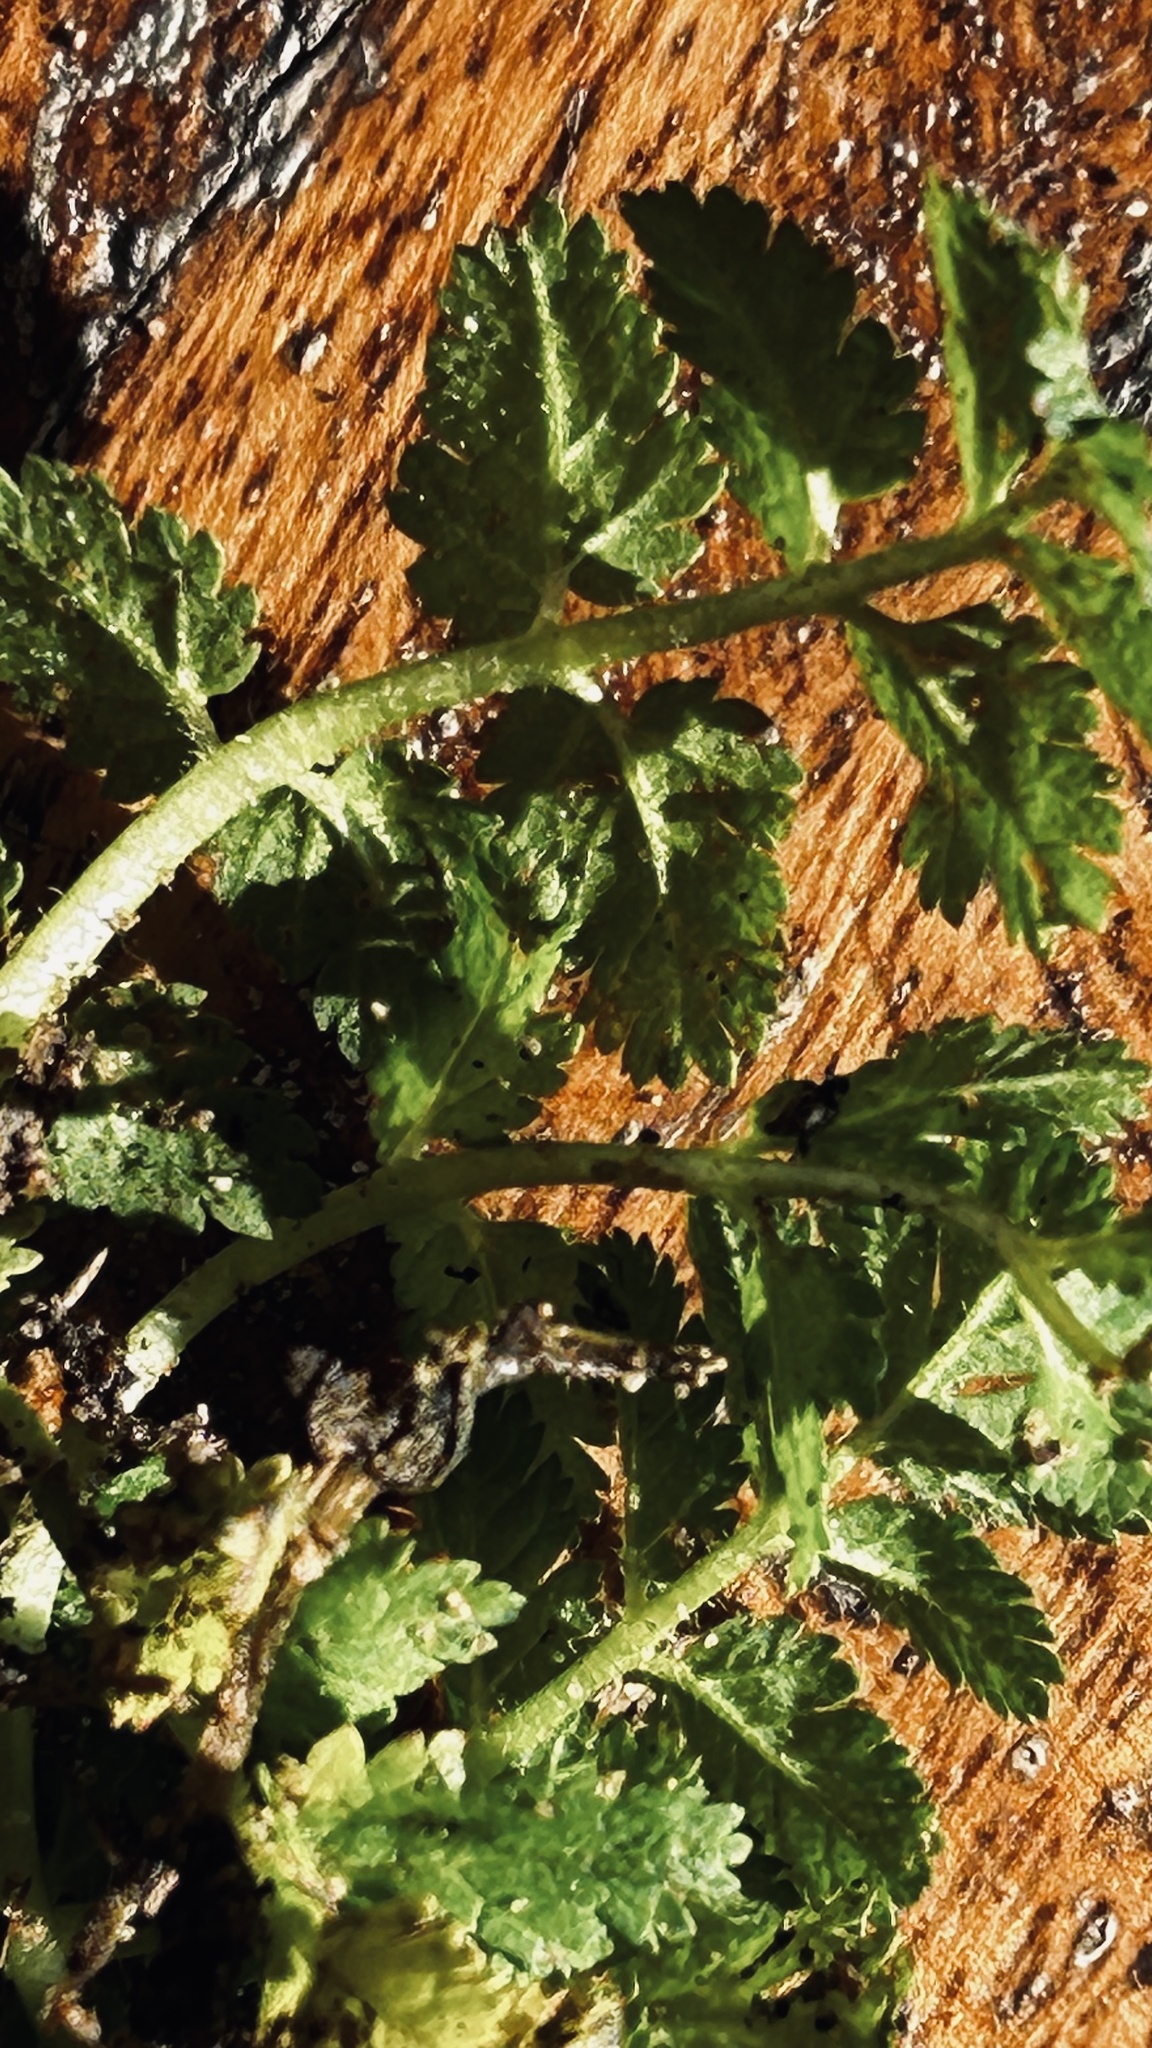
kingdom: Plantae
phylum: Tracheophyta
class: Magnoliopsida
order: Geraniales
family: Geraniaceae
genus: Erodium
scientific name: Erodium moschatum
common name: Musk stork's-bill
